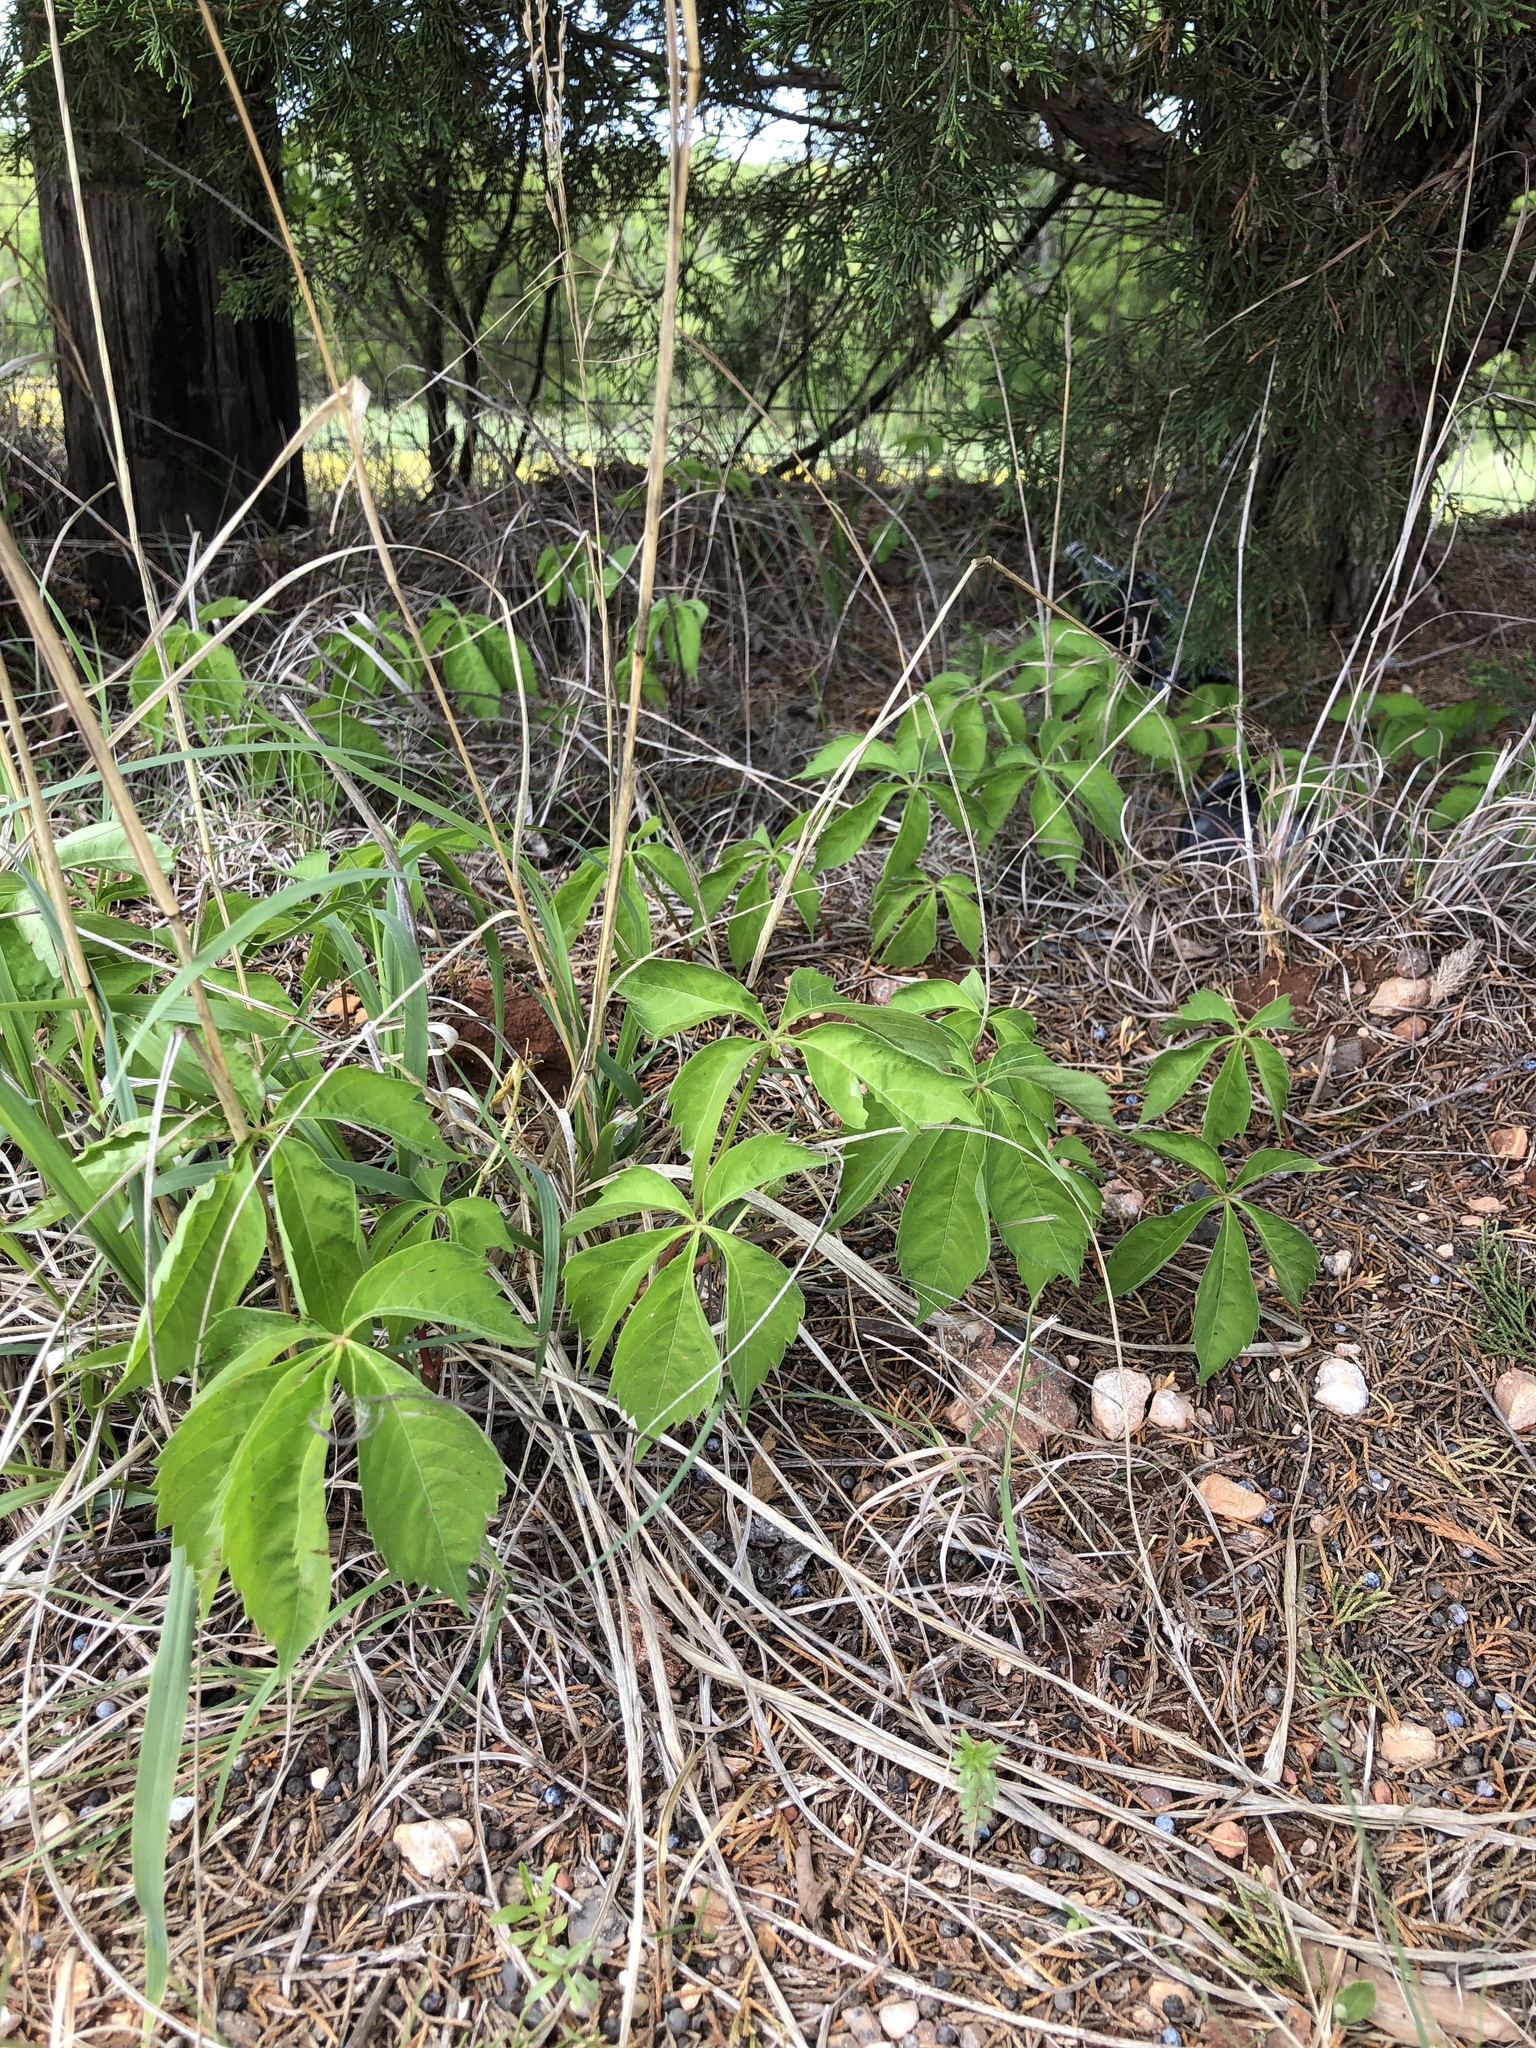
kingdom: Plantae
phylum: Tracheophyta
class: Magnoliopsida
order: Vitales
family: Vitaceae
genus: Parthenocissus
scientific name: Parthenocissus quinquefolia
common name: Virginia-creeper
